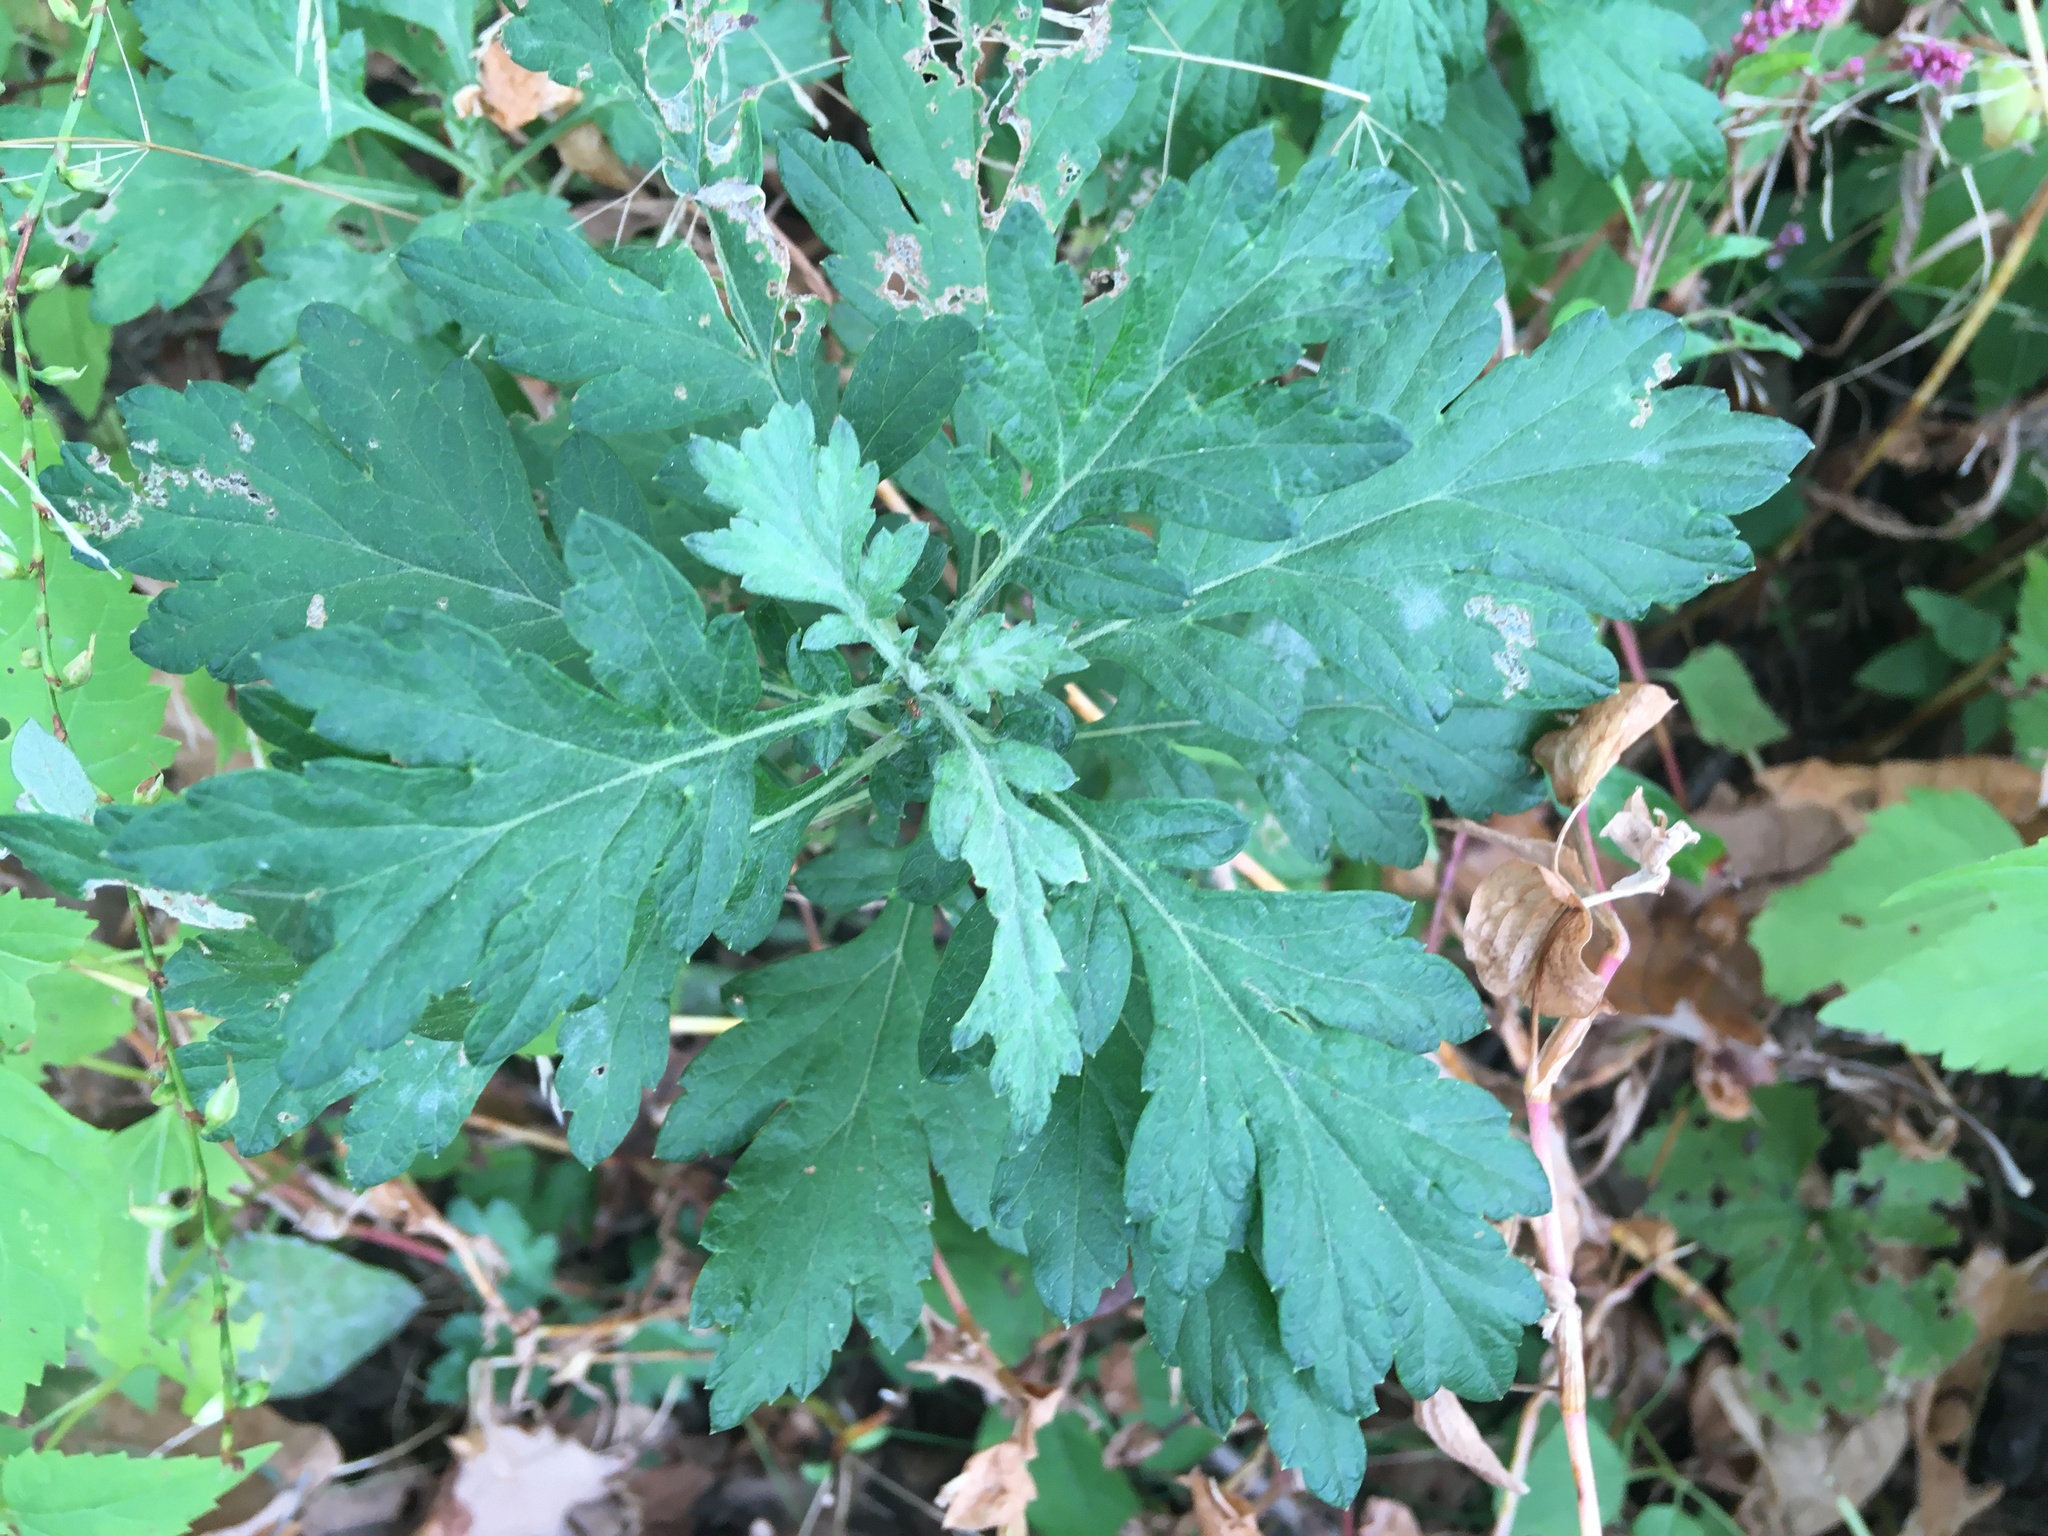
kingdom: Plantae
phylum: Tracheophyta
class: Magnoliopsida
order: Asterales
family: Asteraceae
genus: Artemisia
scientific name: Artemisia vulgaris
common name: Mugwort
